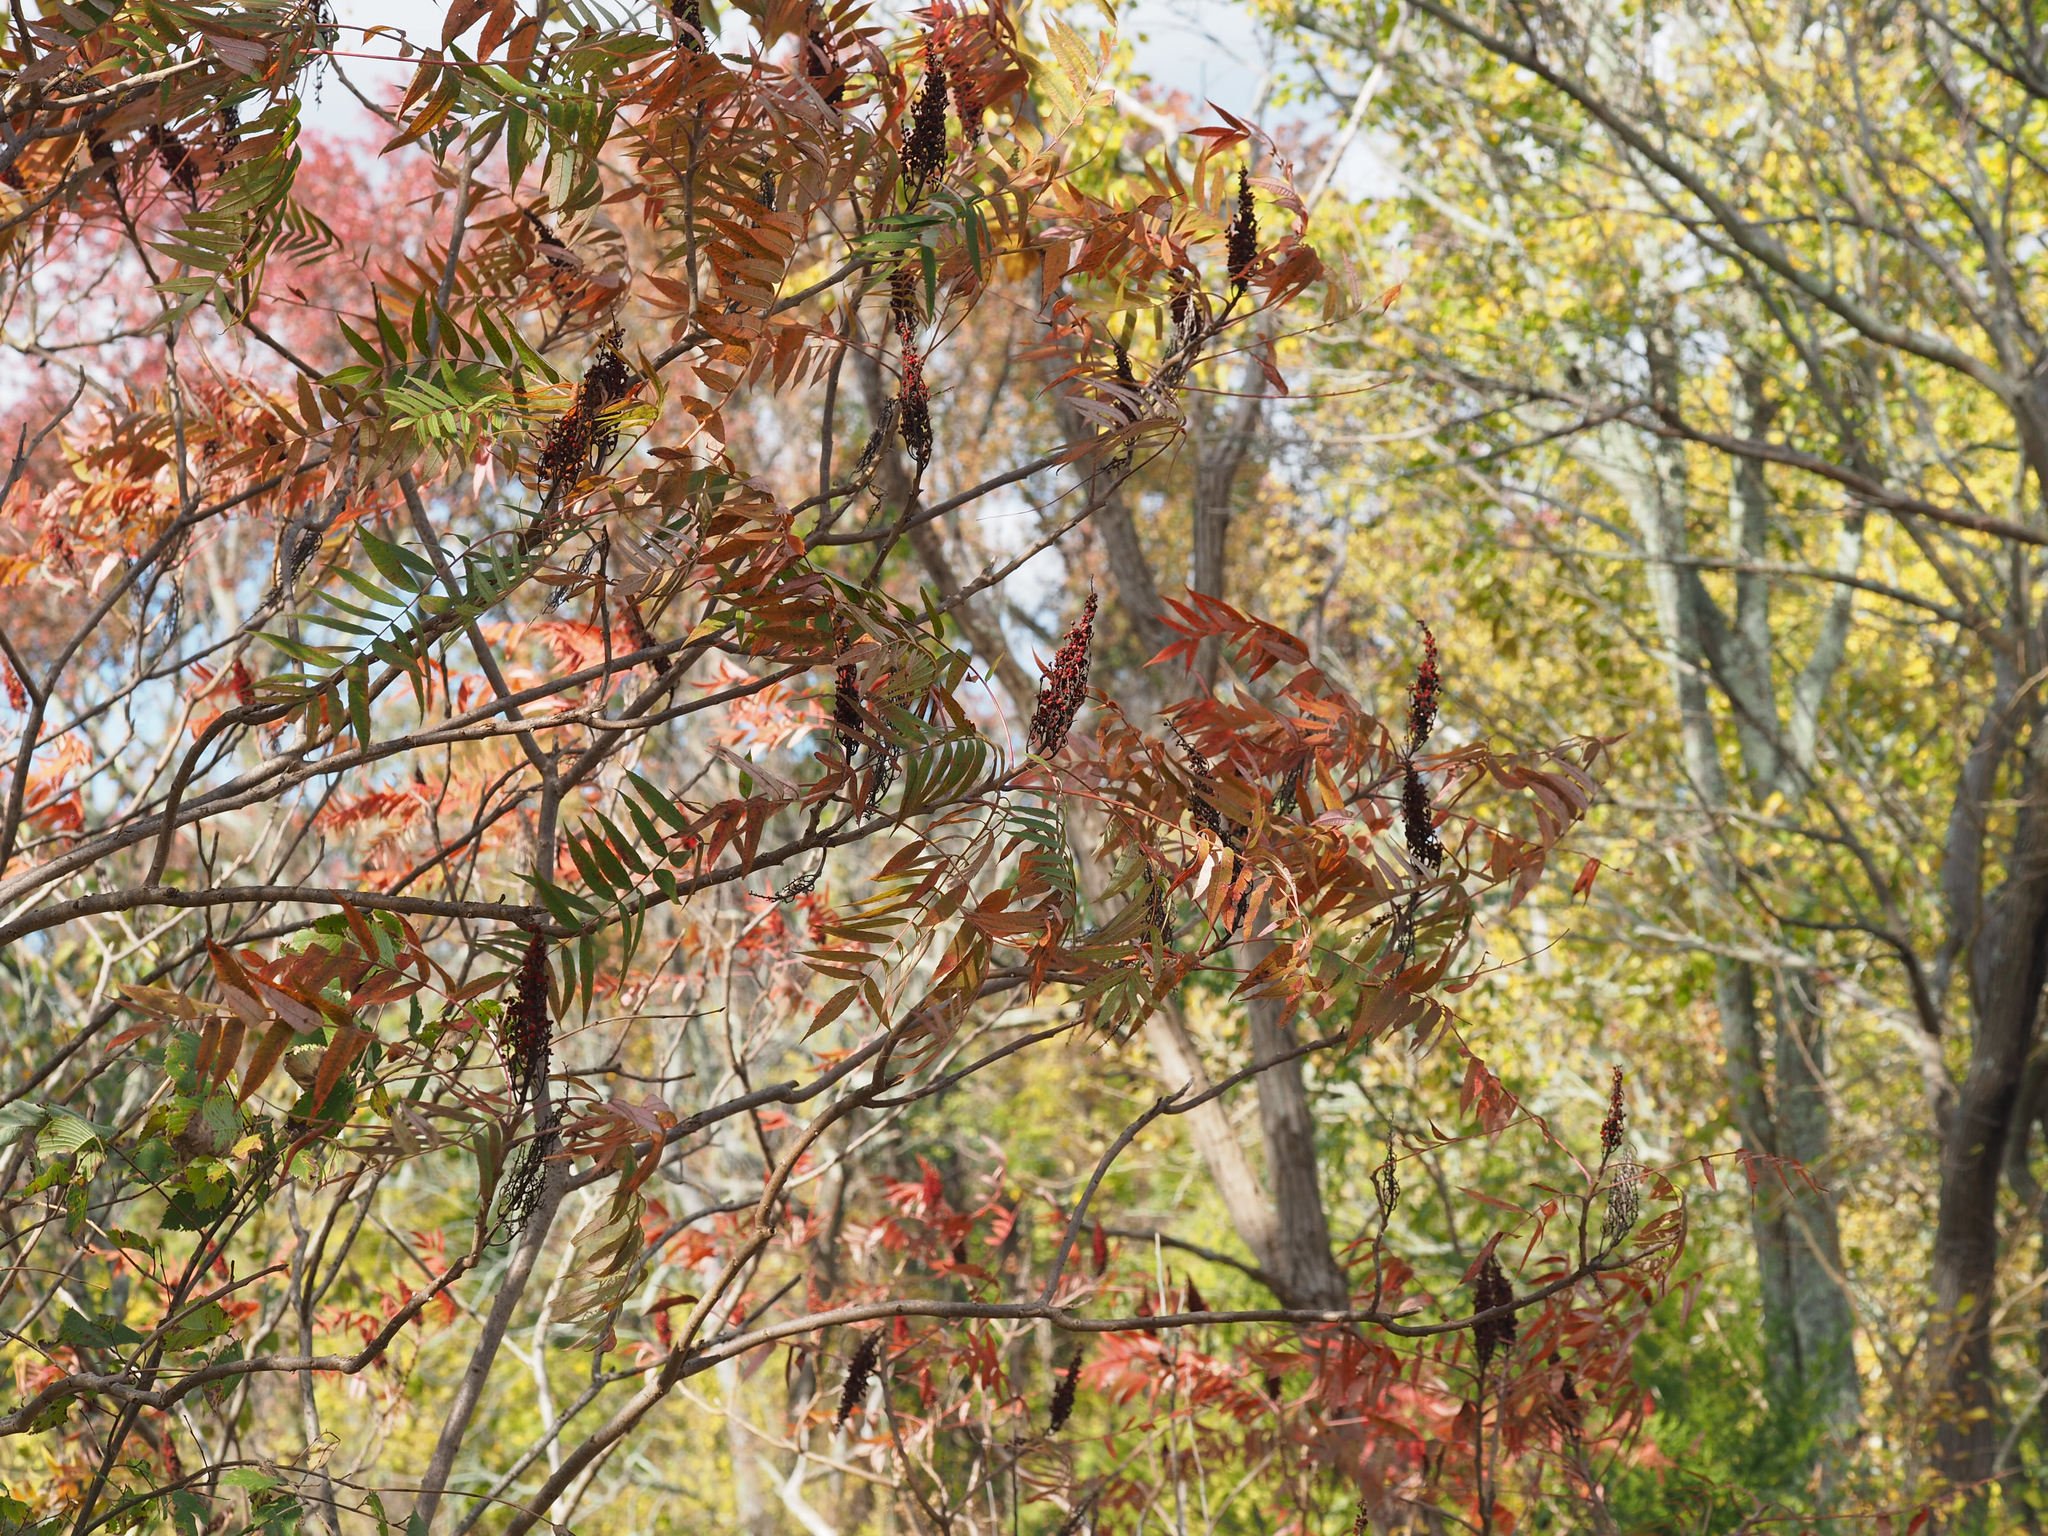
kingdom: Plantae
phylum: Tracheophyta
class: Magnoliopsida
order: Sapindales
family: Anacardiaceae
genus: Rhus
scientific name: Rhus glabra
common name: Scarlet sumac
